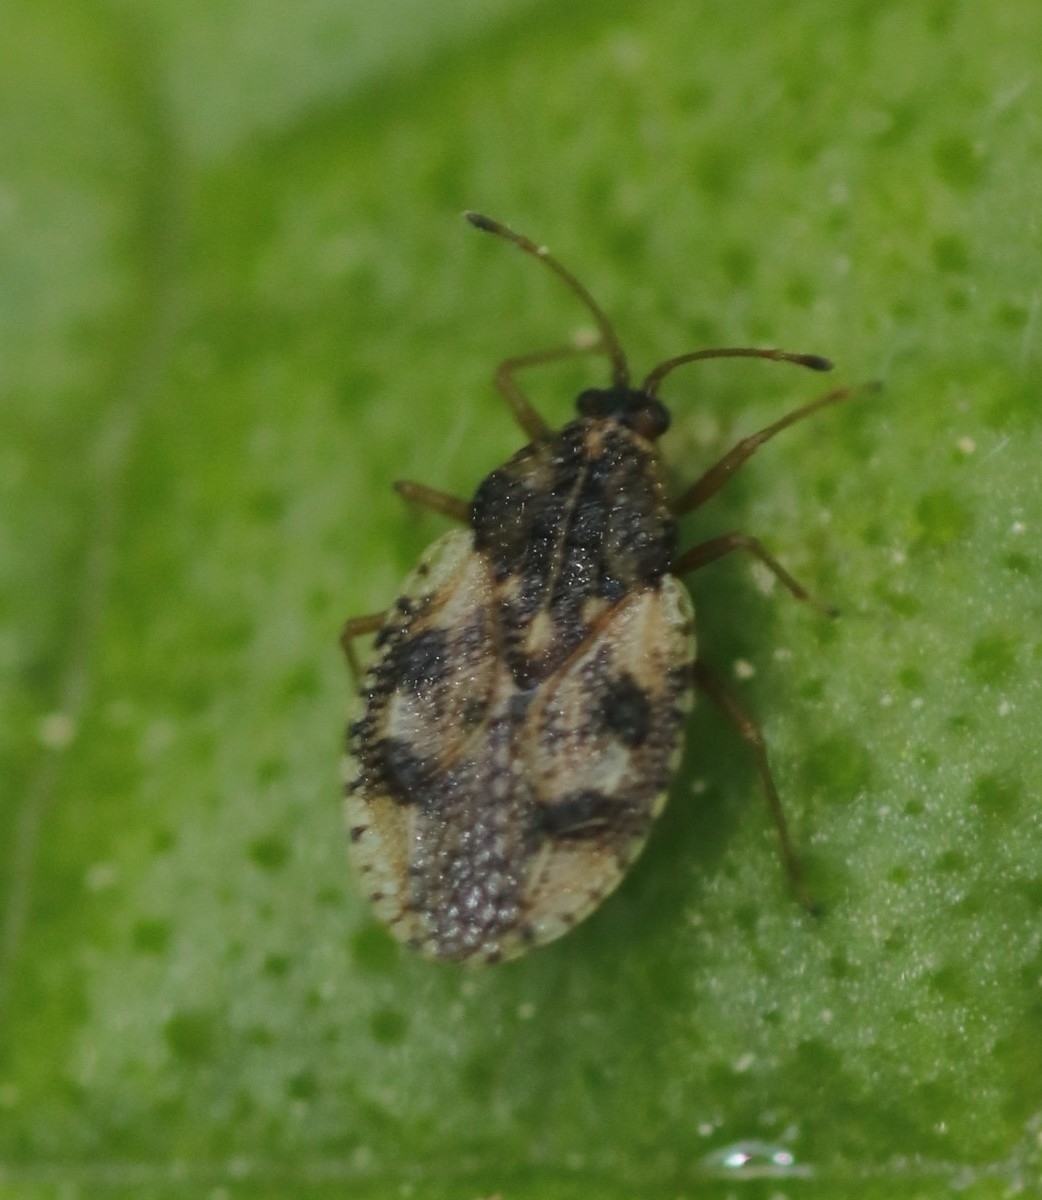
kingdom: Animalia
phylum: Arthropoda
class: Insecta
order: Hemiptera
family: Tingidae
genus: Dictyla
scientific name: Dictyla humuli
